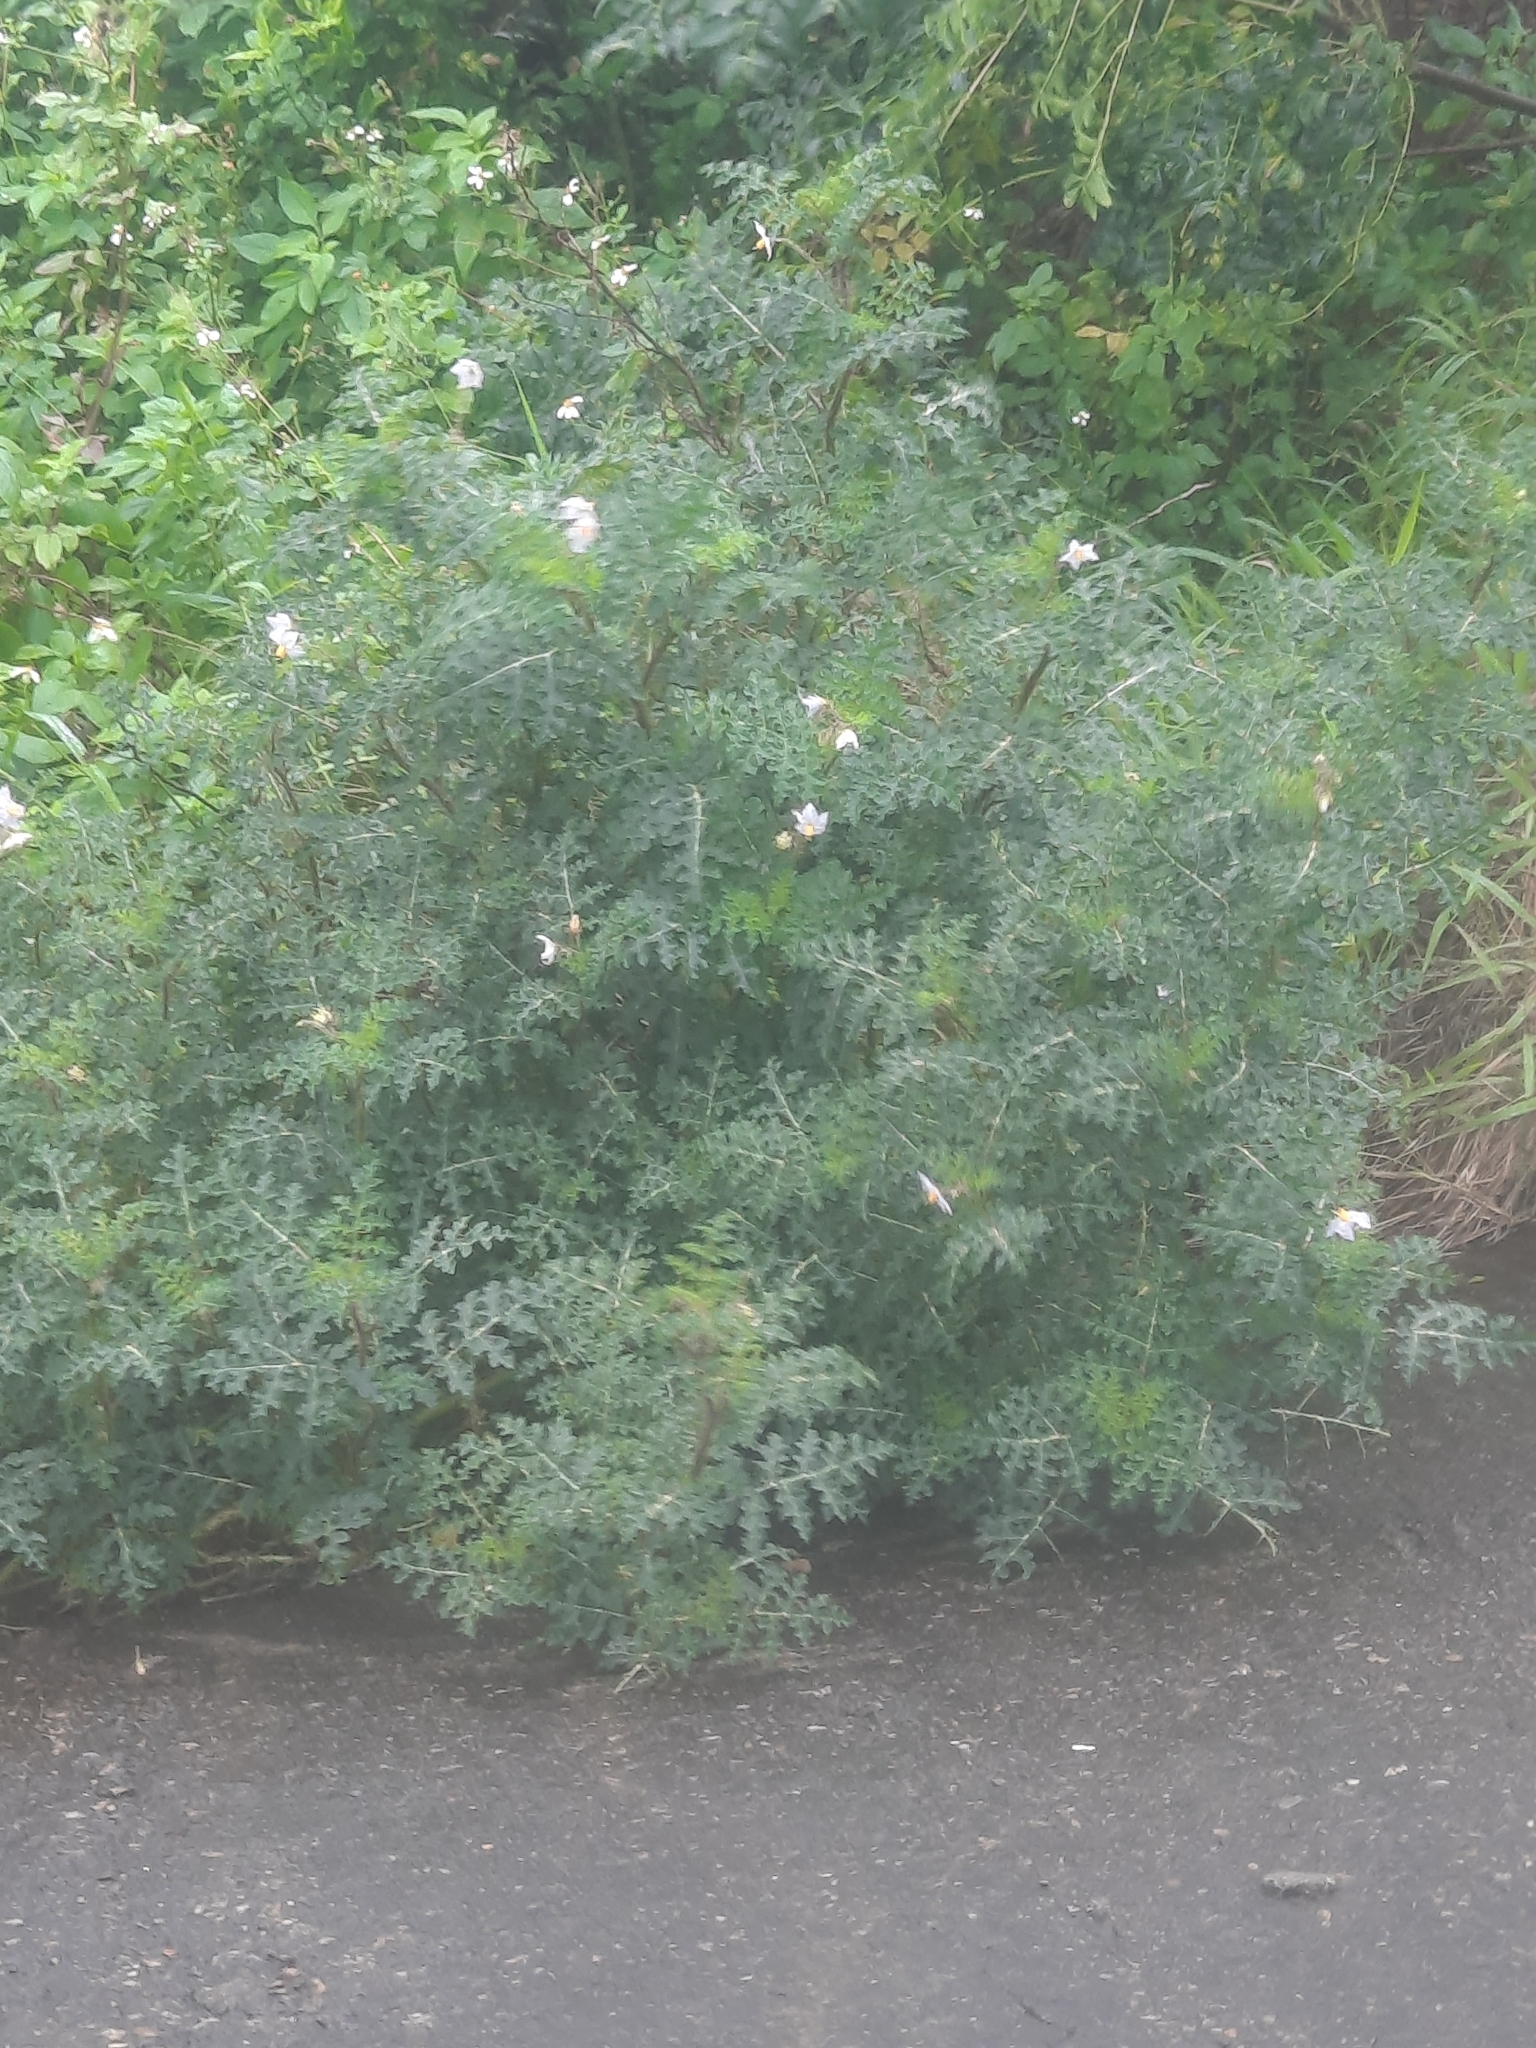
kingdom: Plantae
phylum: Tracheophyta
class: Magnoliopsida
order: Solanales
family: Solanaceae
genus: Solanum
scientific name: Solanum sisymbriifolium
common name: Red buffalo-bur
